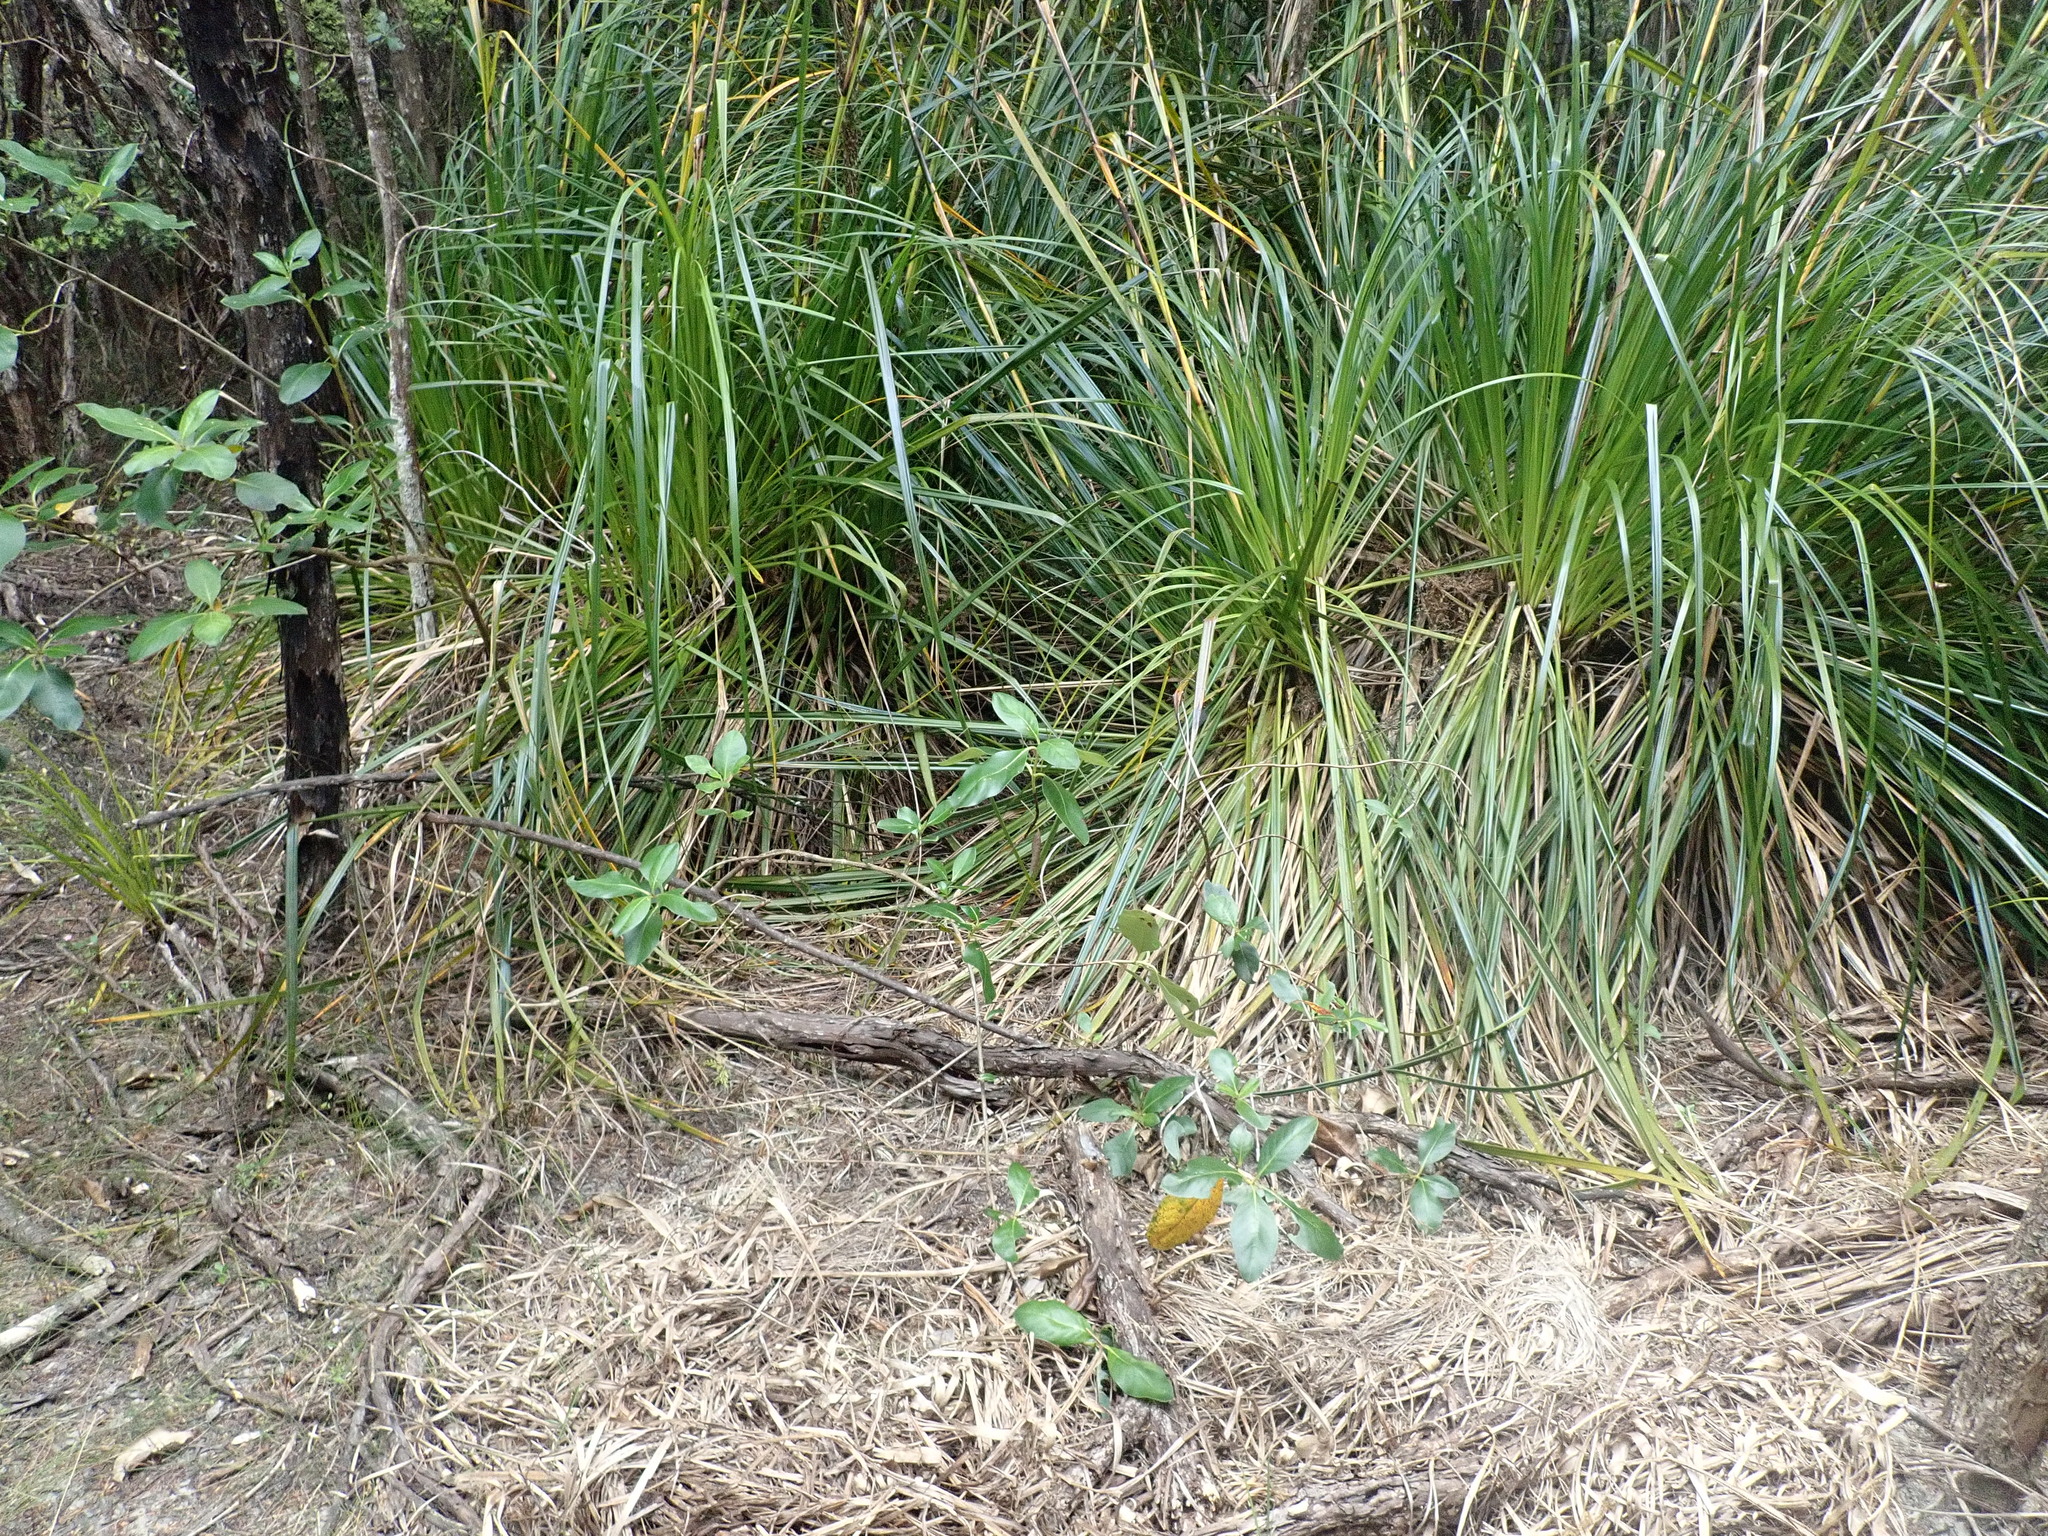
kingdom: Plantae
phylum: Tracheophyta
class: Liliopsida
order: Poales
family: Cyperaceae
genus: Gahnia
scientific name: Gahnia xanthocarpa
